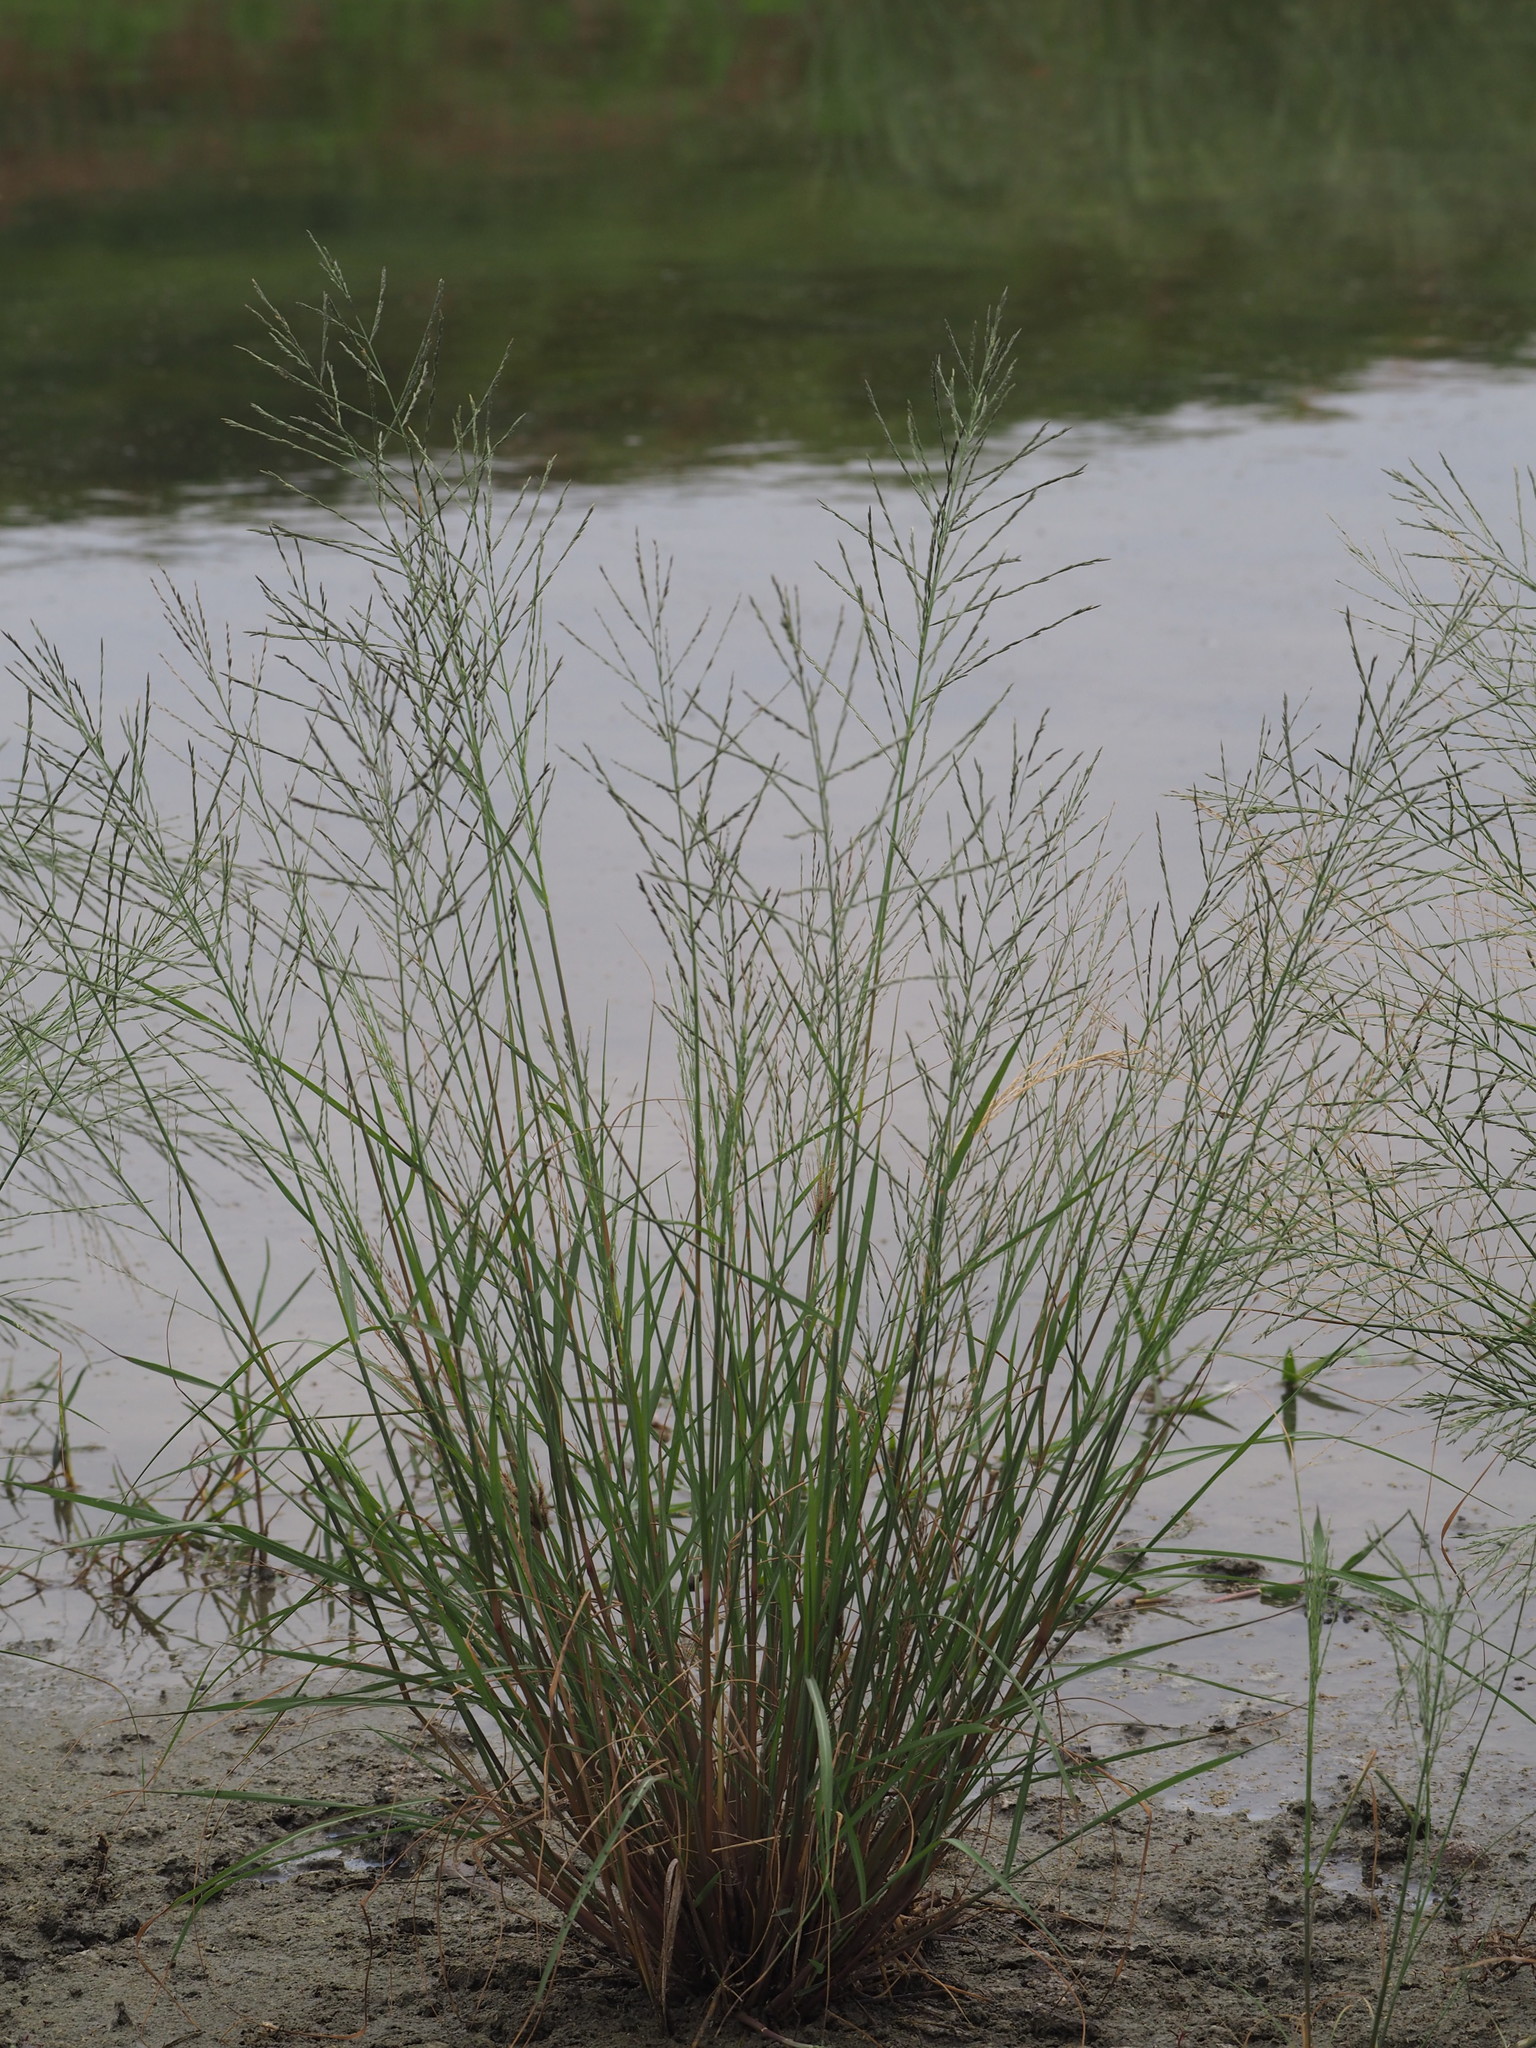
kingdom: Plantae
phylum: Tracheophyta
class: Liliopsida
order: Poales
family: Poaceae
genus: Diplachne
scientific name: Diplachne fusca
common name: Brown beetle grass
